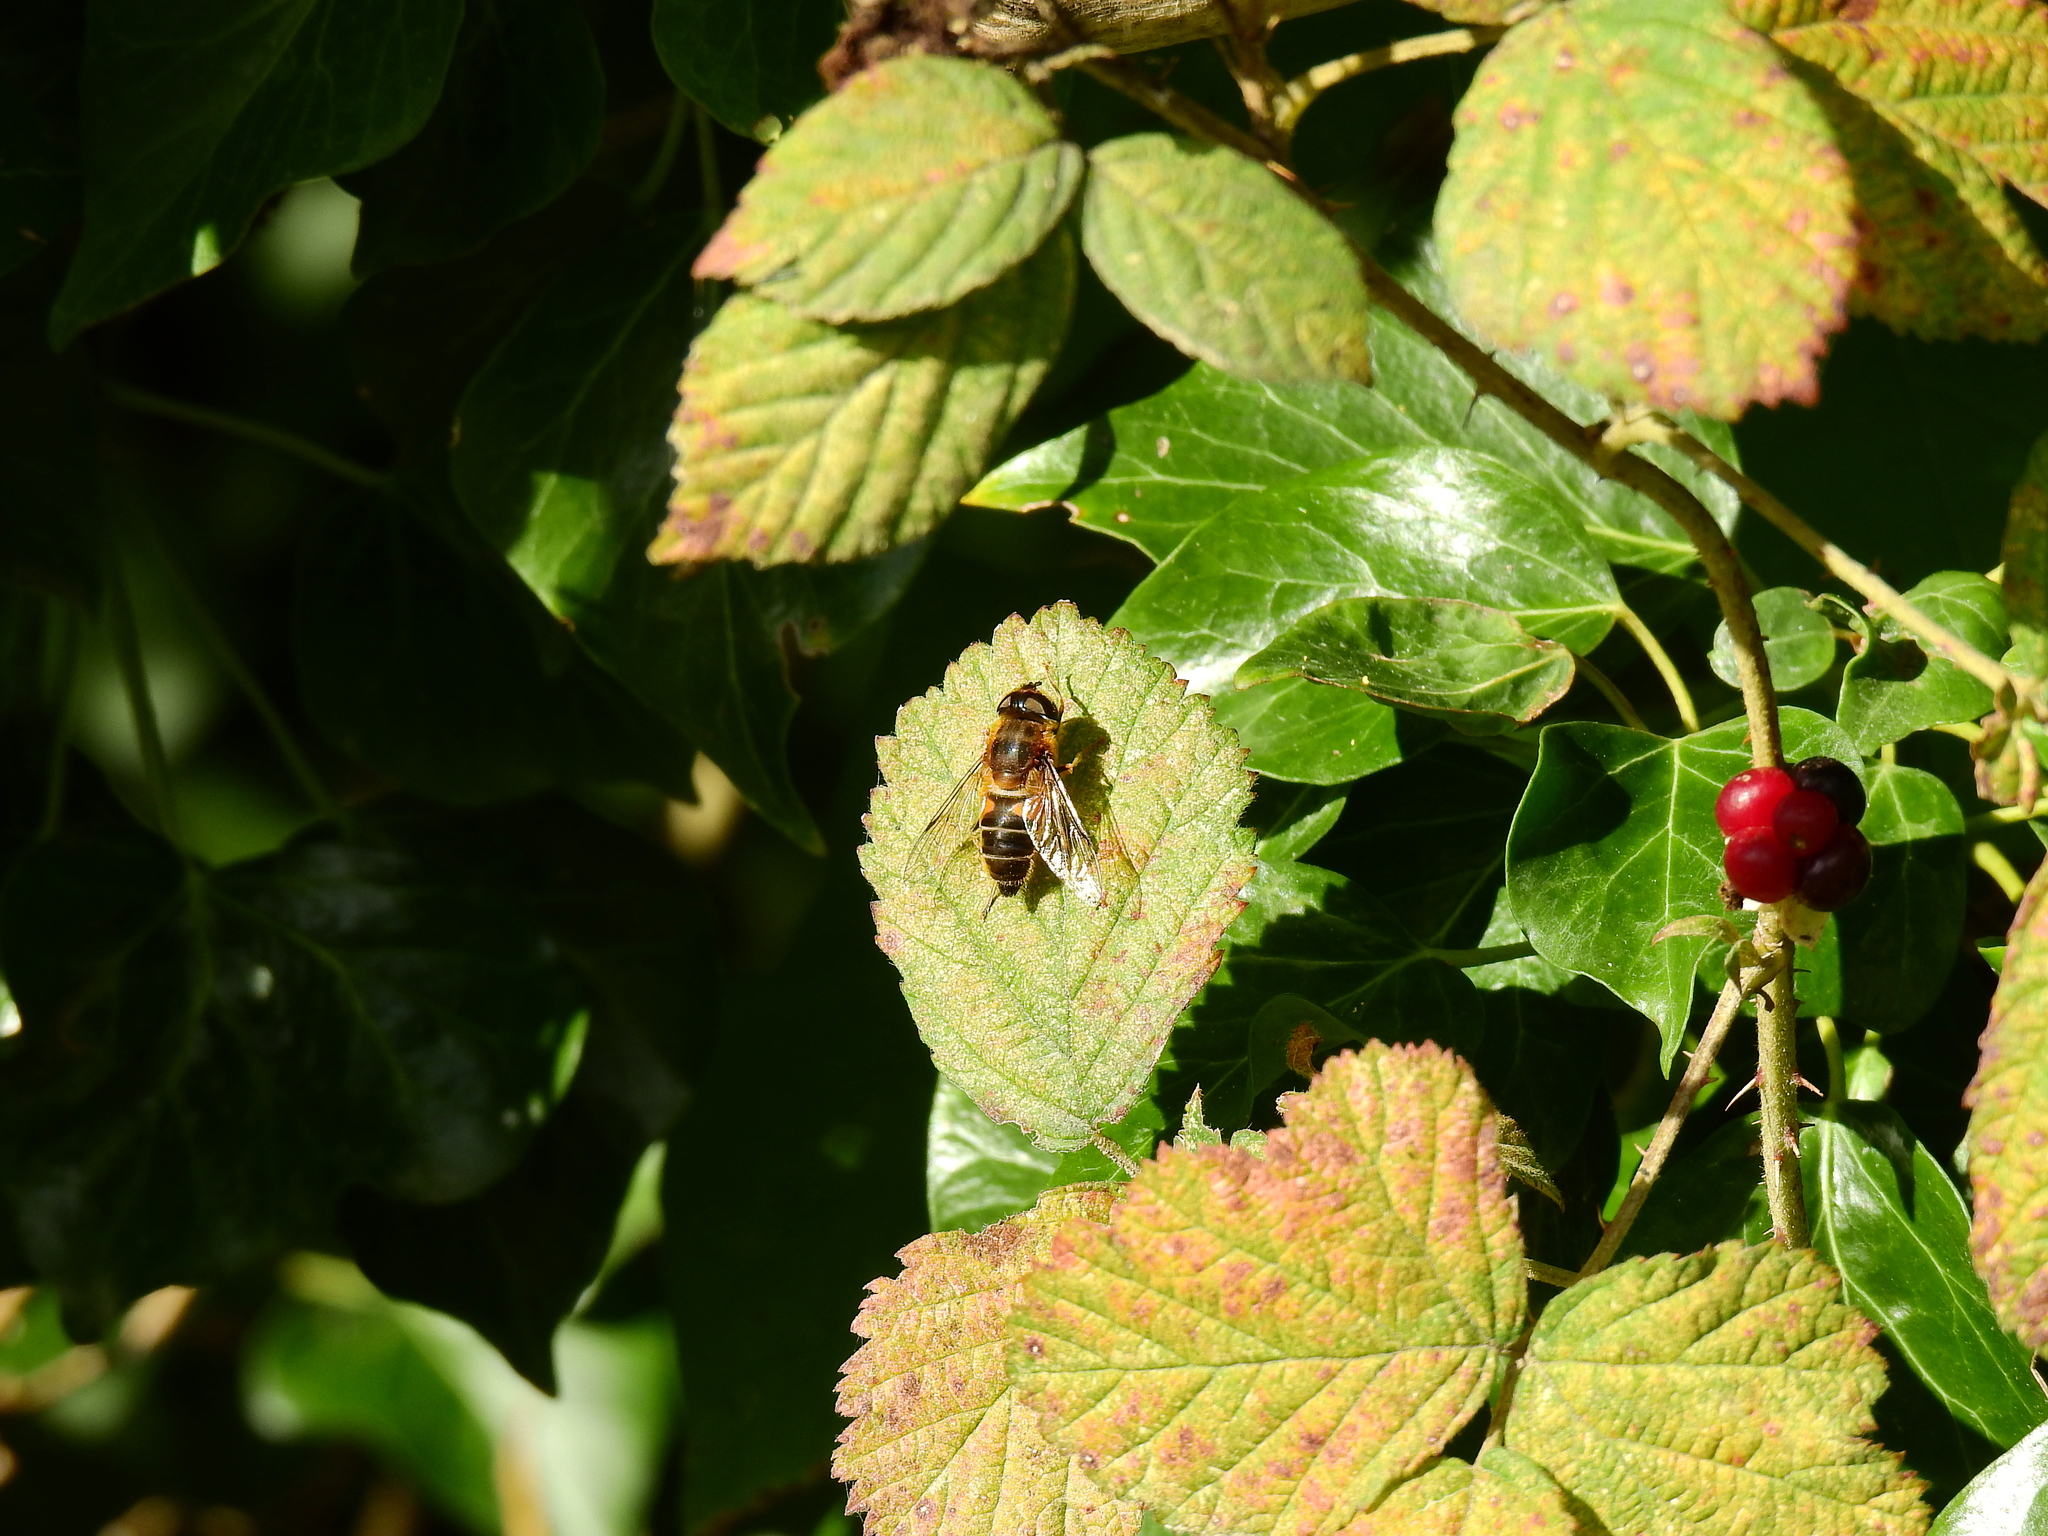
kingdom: Animalia
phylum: Arthropoda
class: Insecta
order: Diptera
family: Syrphidae
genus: Eristalis
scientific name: Eristalis pertinax
